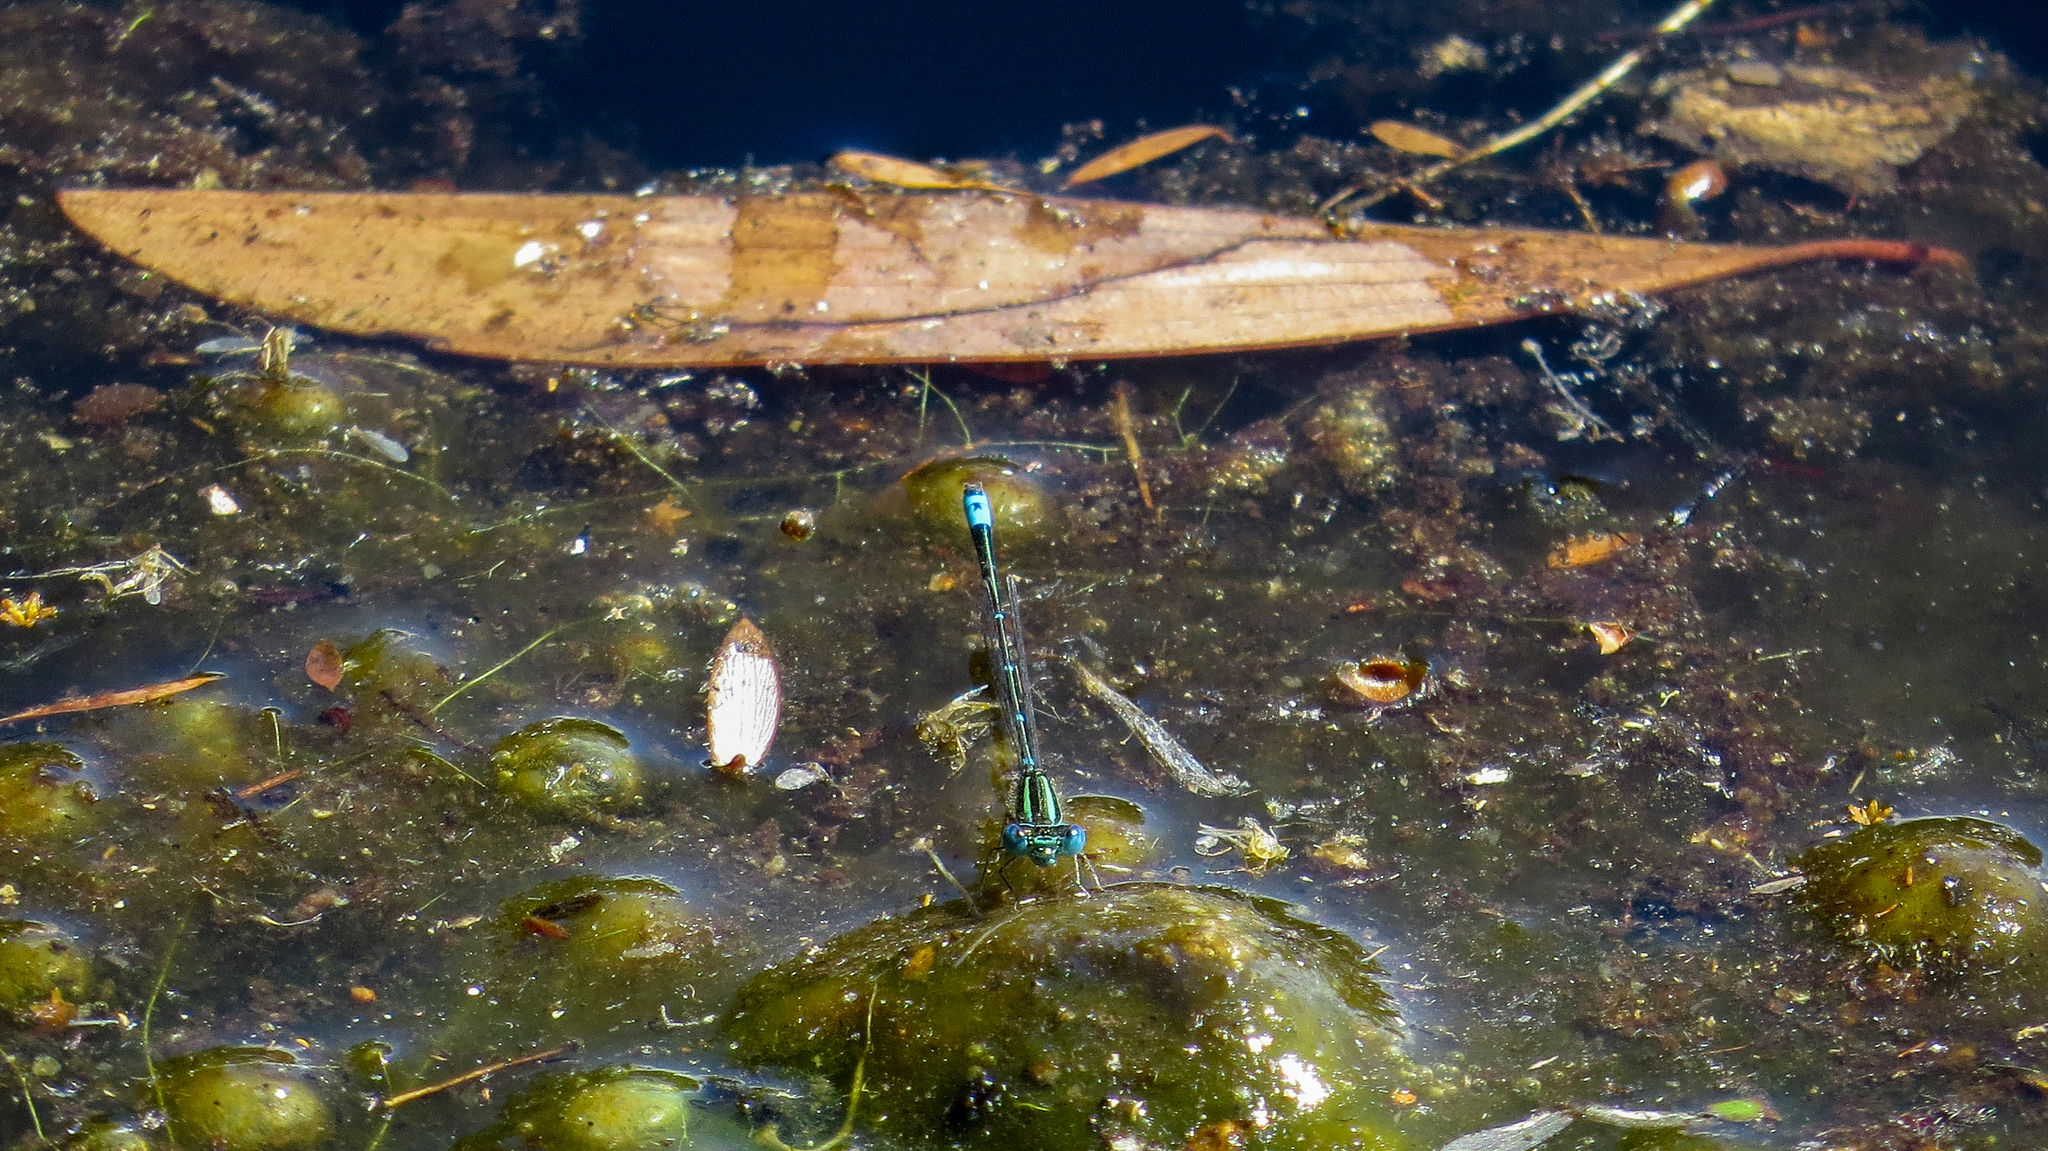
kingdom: Animalia
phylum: Arthropoda
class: Insecta
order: Odonata
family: Coenagrionidae
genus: Austroagrion
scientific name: Austroagrion watsoni
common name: Eastern billabongfly
